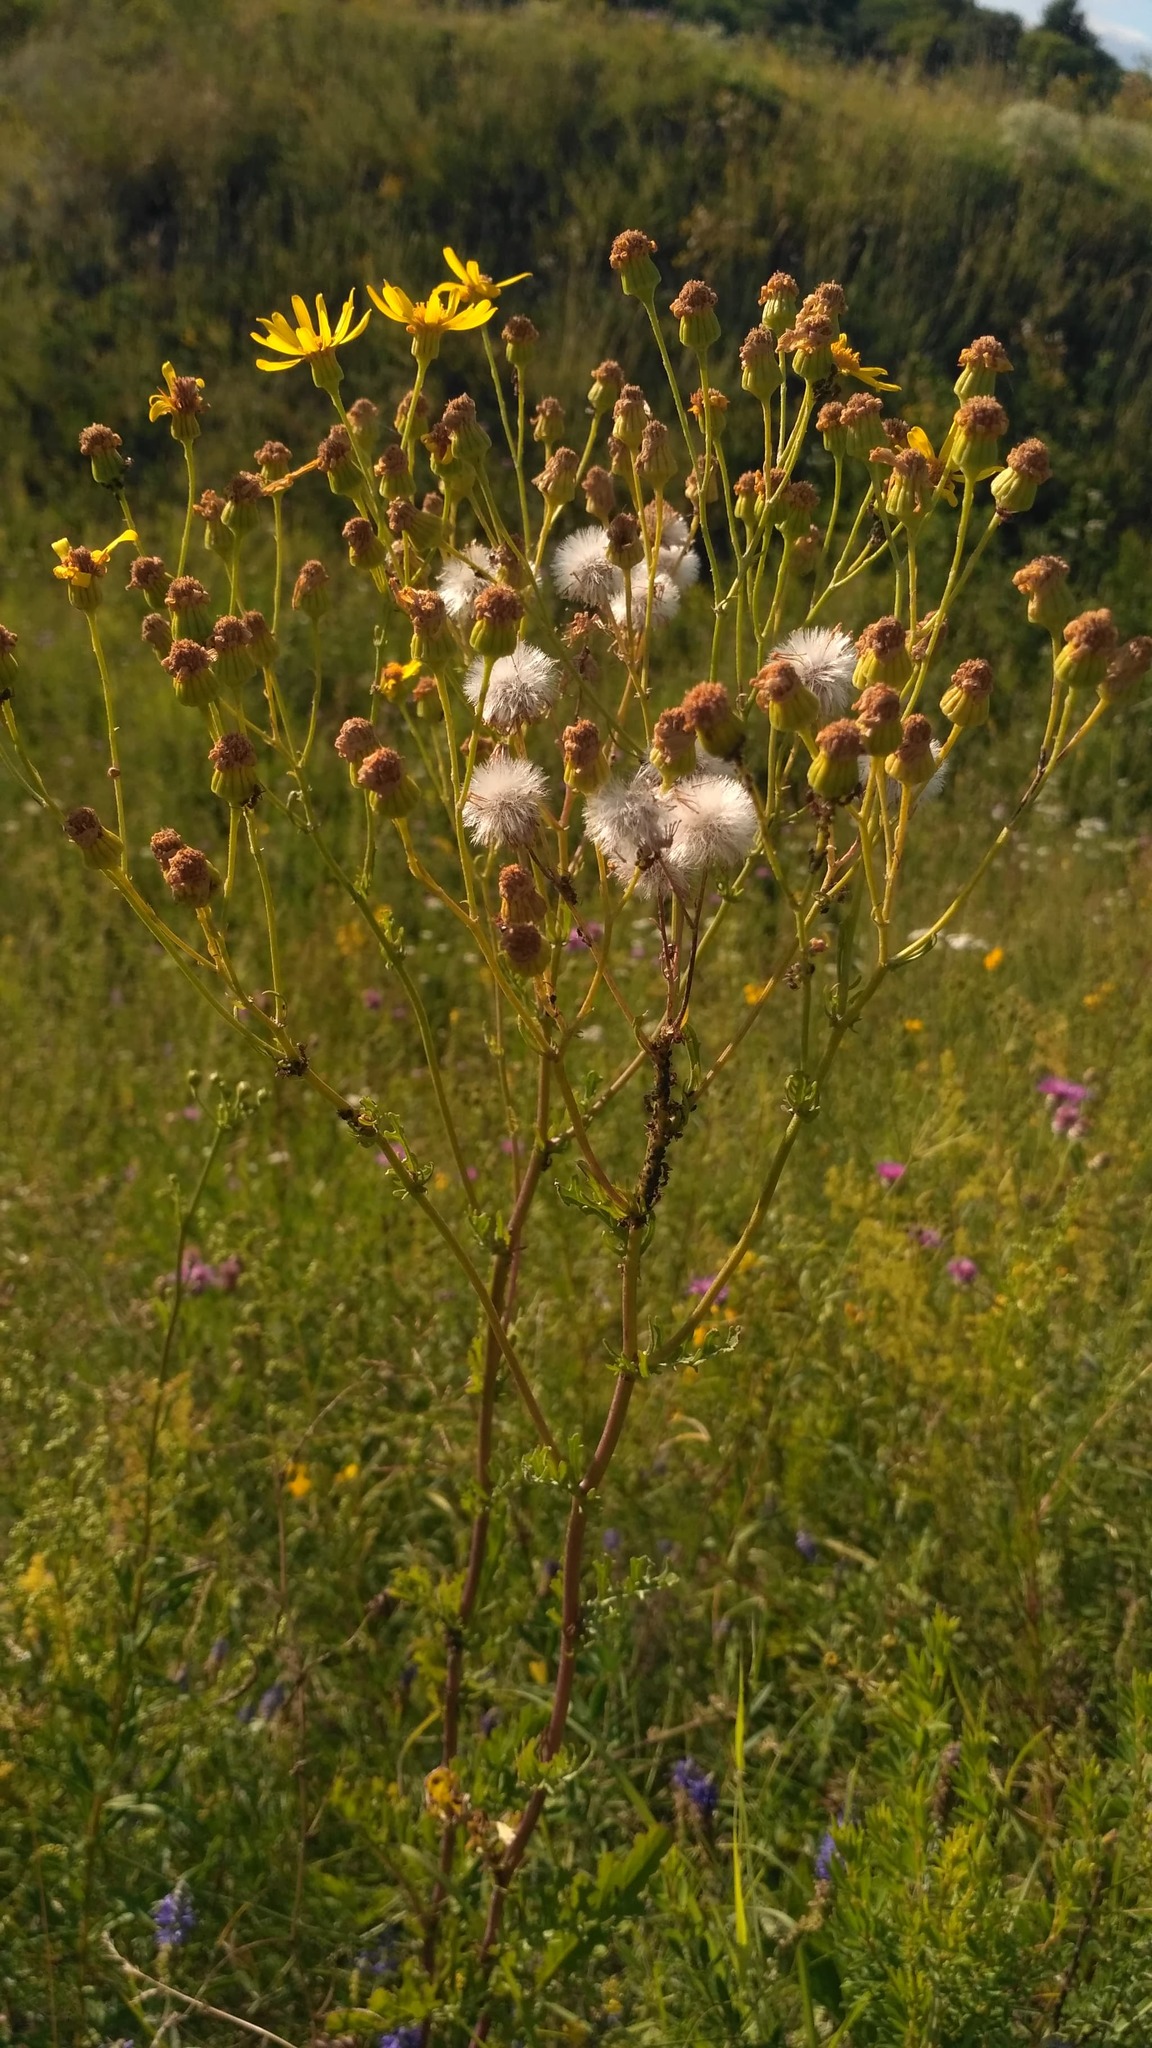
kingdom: Plantae
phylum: Tracheophyta
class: Magnoliopsida
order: Asterales
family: Asteraceae
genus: Jacobaea
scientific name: Jacobaea vulgaris
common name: Stinking willie
